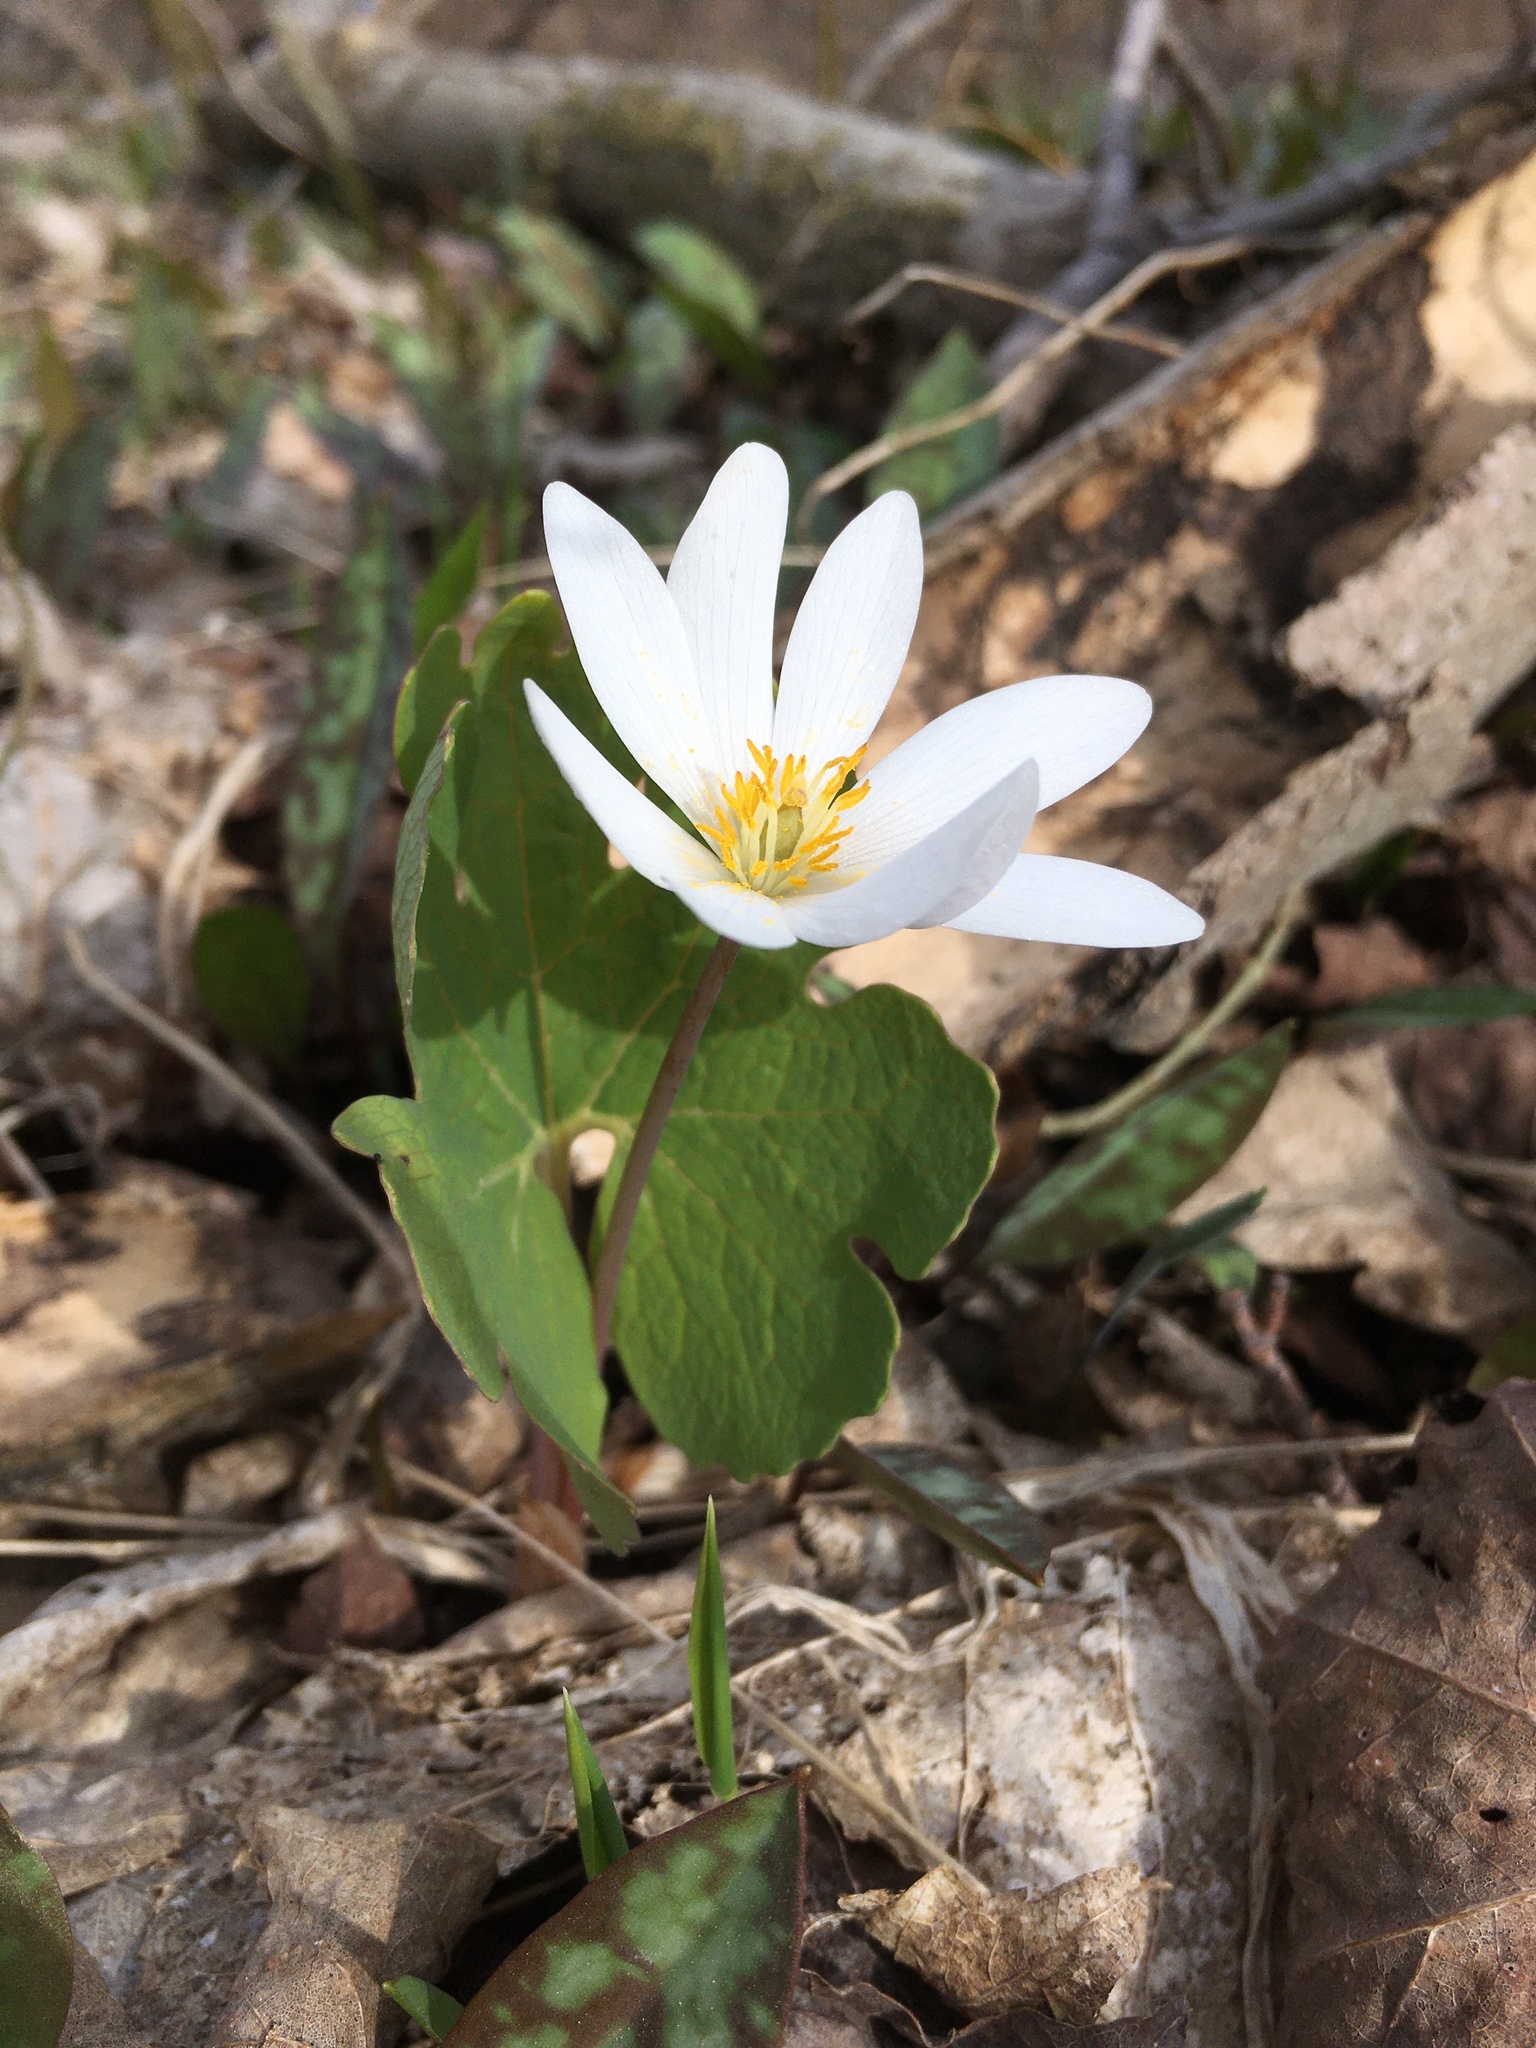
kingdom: Plantae
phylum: Tracheophyta
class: Magnoliopsida
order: Ranunculales
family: Papaveraceae
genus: Sanguinaria
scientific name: Sanguinaria canadensis
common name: Bloodroot
